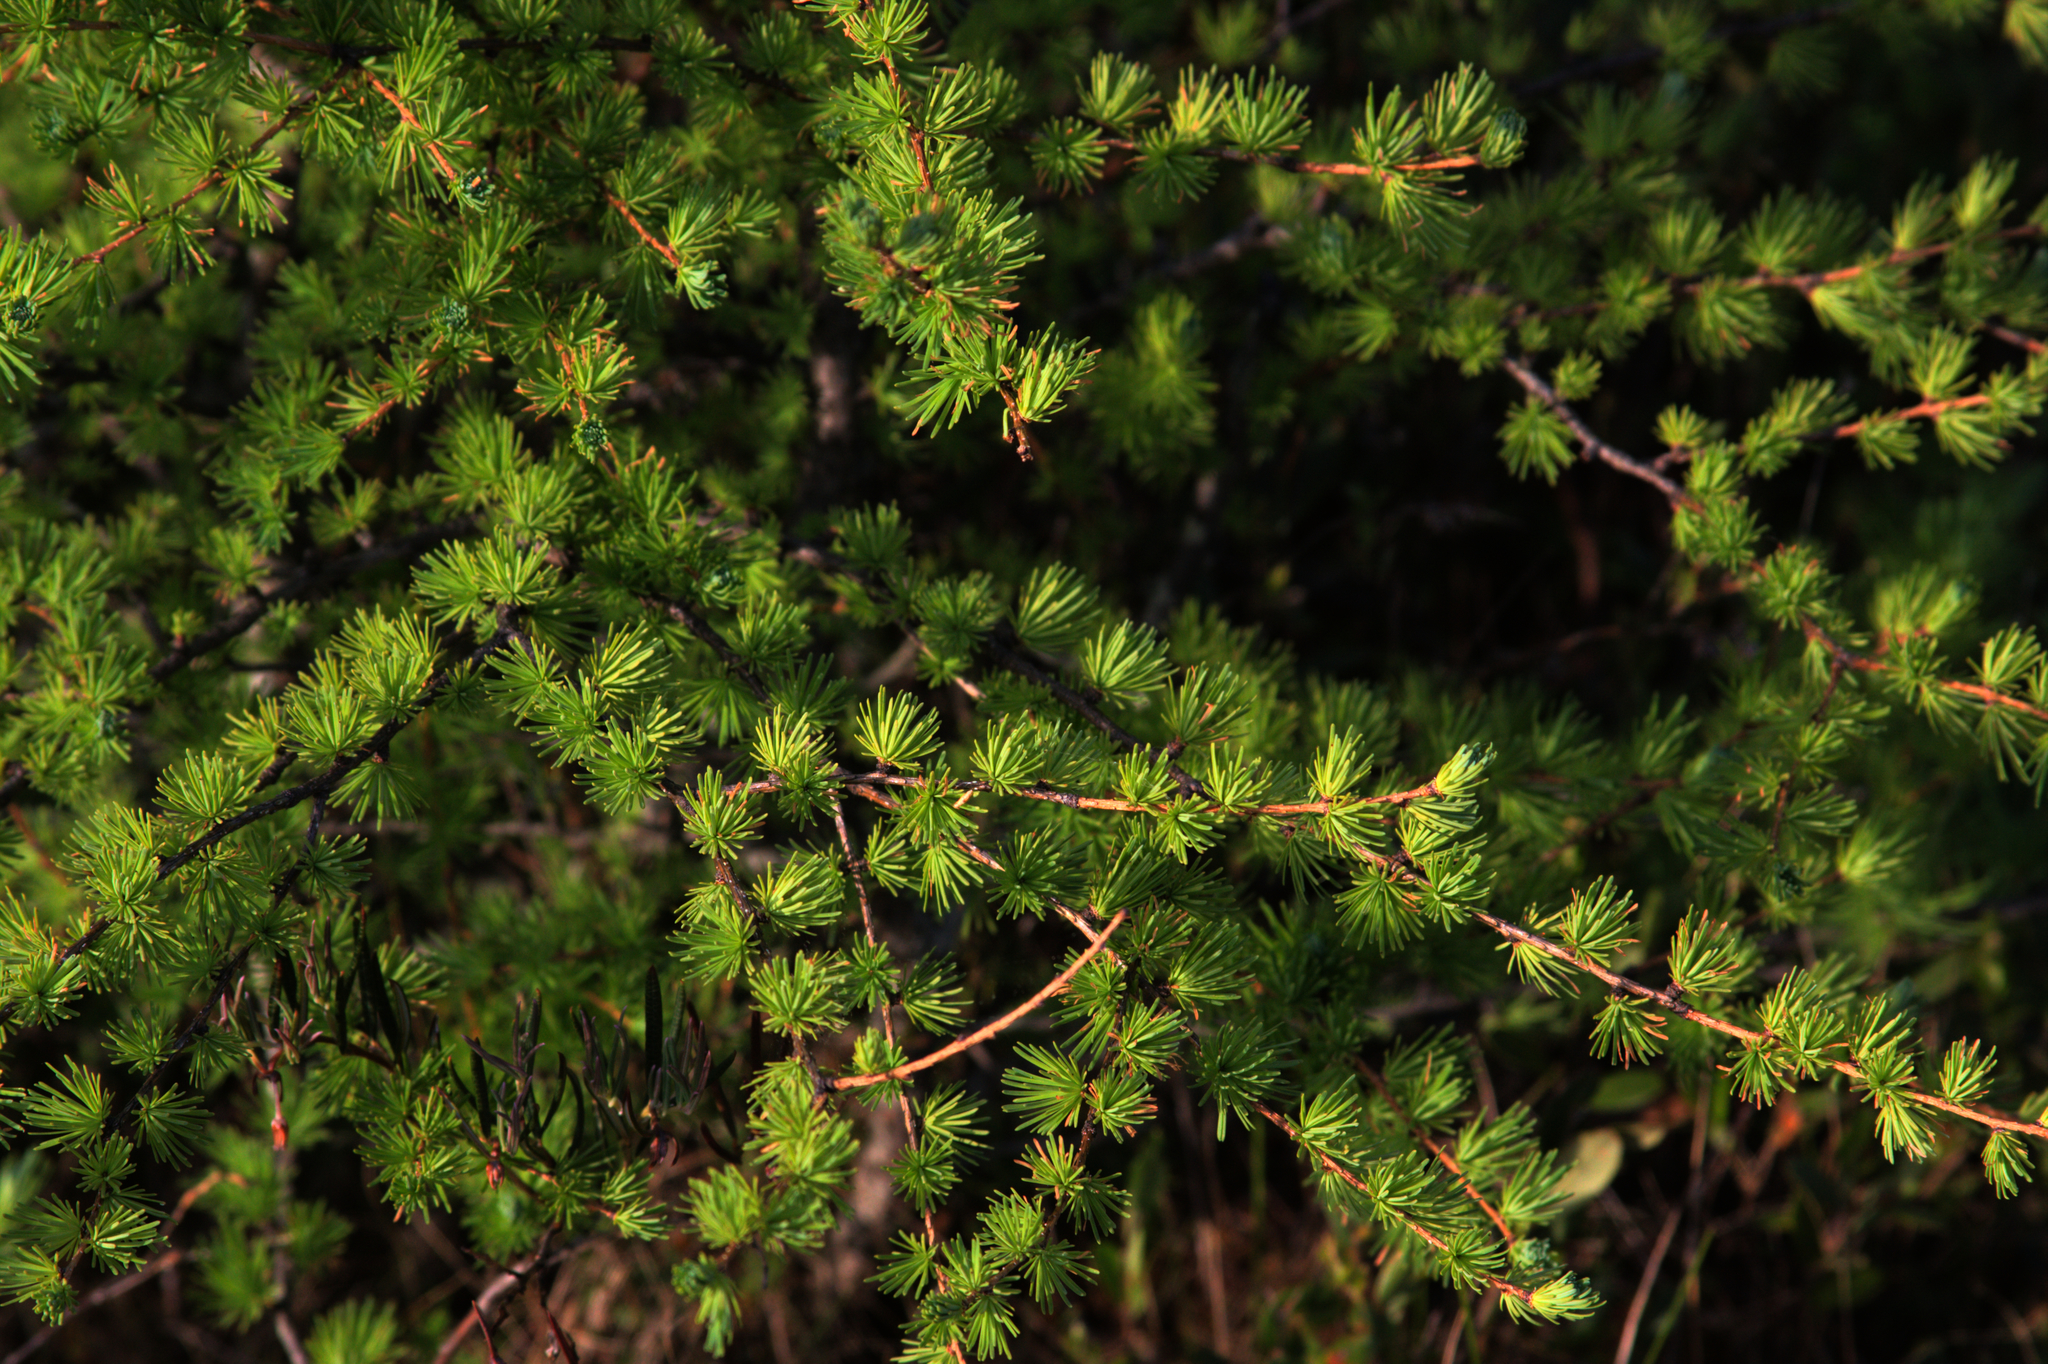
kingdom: Plantae
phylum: Tracheophyta
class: Pinopsida
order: Pinales
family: Pinaceae
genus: Larix
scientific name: Larix laricina
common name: American larch
